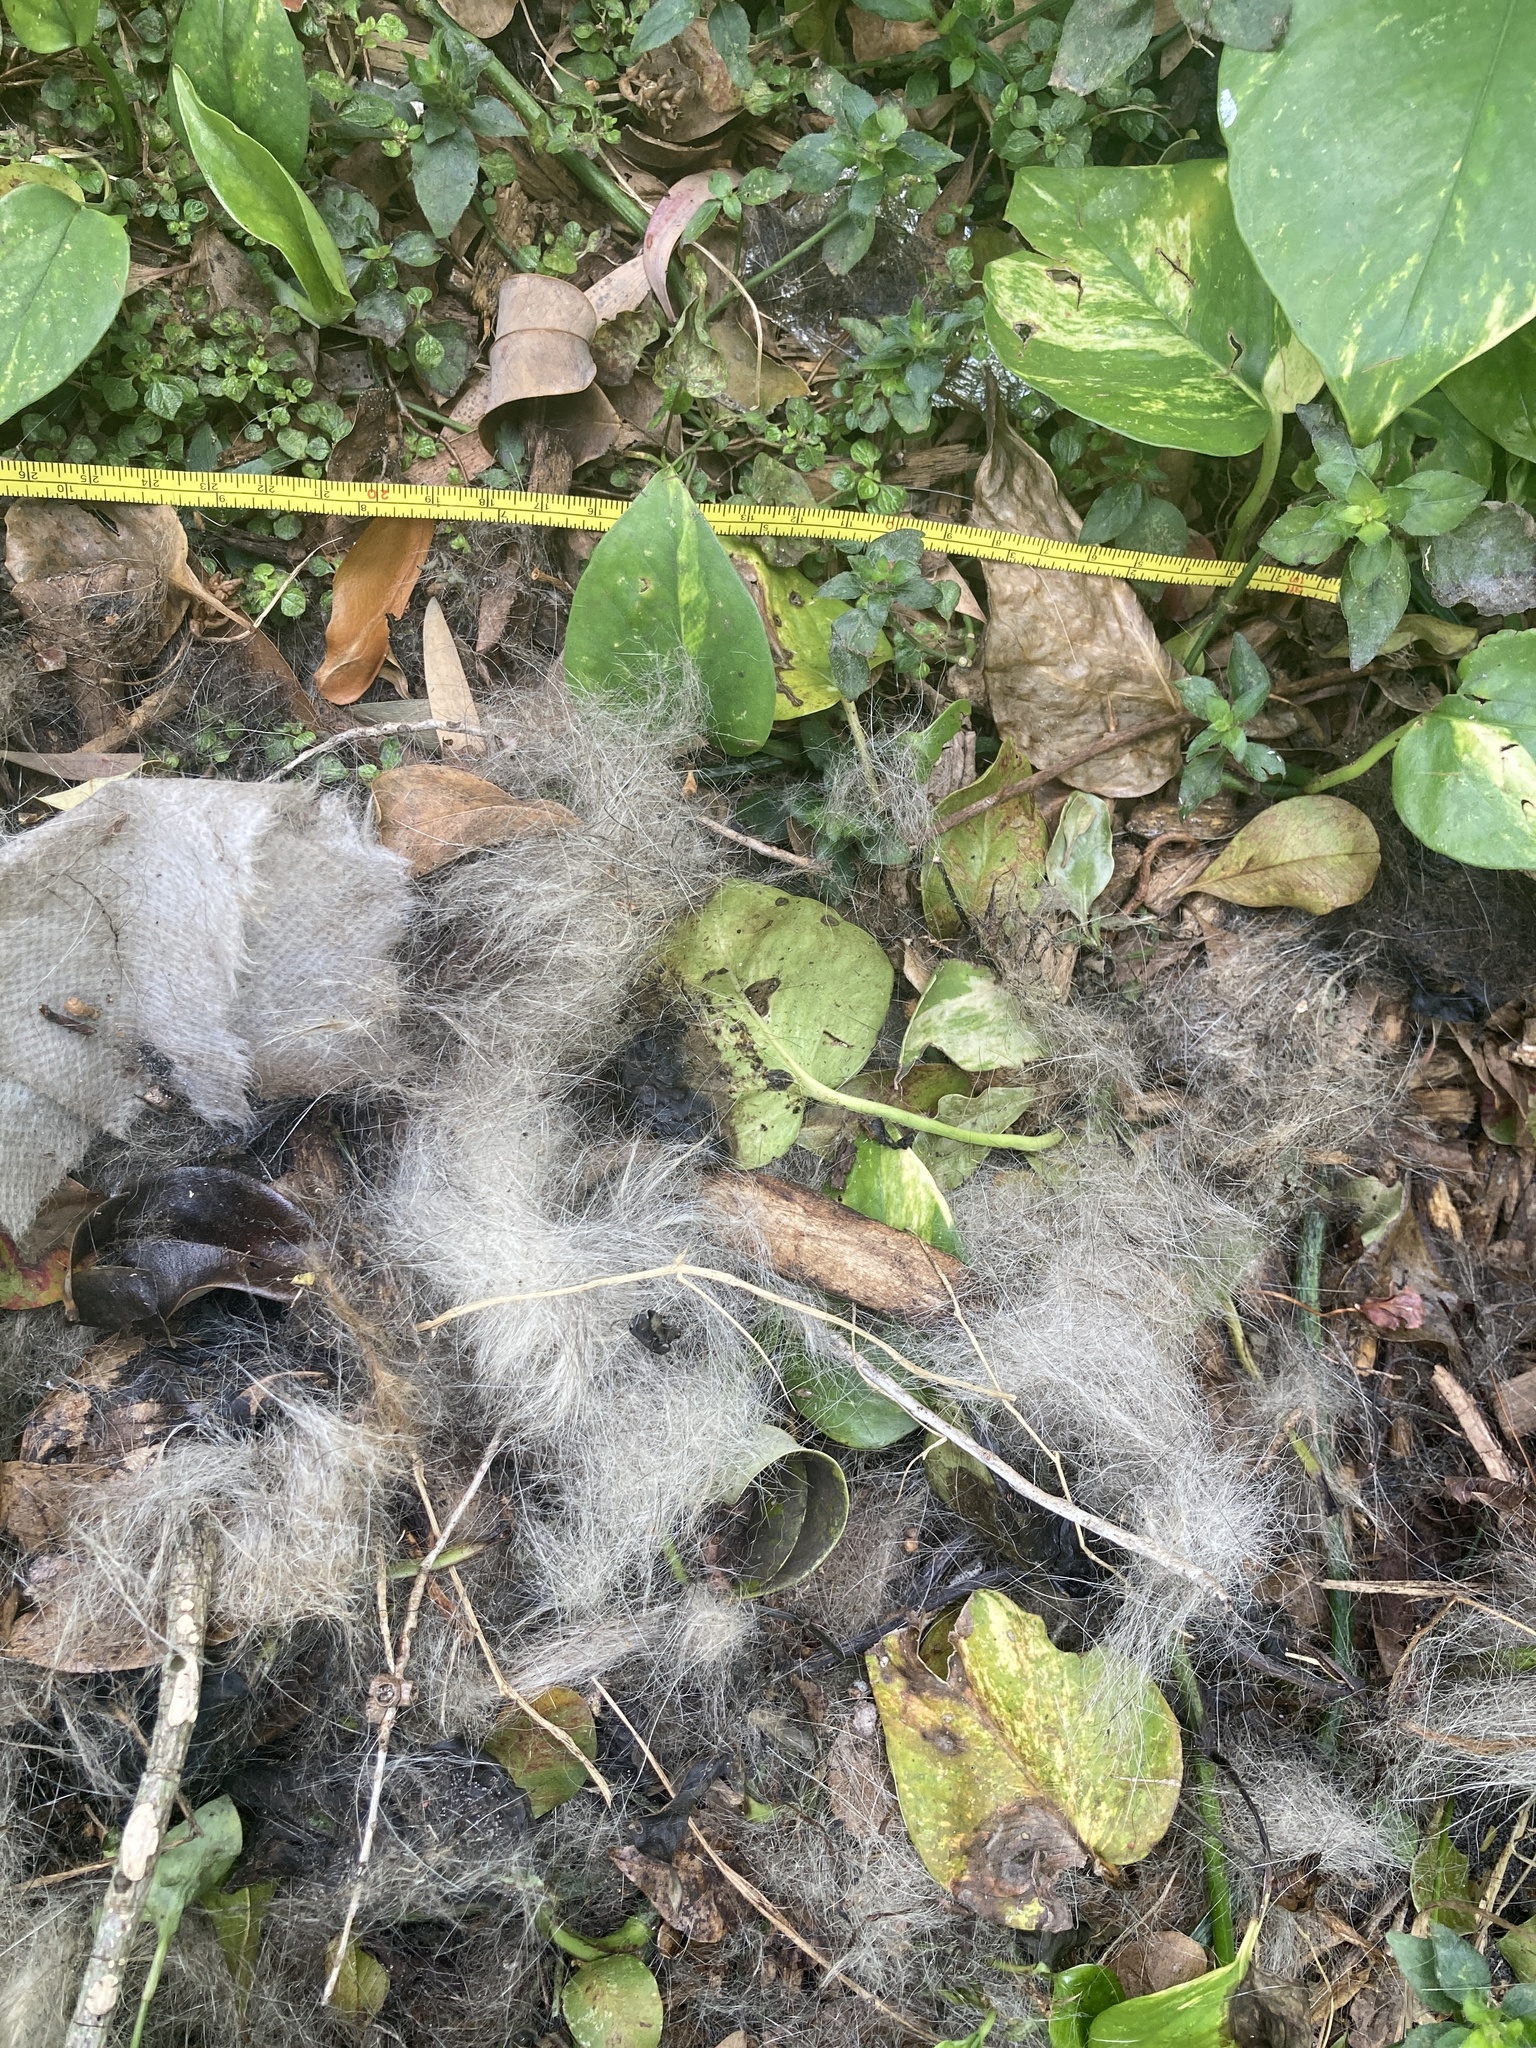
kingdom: Animalia
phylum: Chordata
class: Mammalia
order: Didelphimorphia
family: Didelphidae
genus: Didelphis
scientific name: Didelphis virginiana
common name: Virginia opossum
